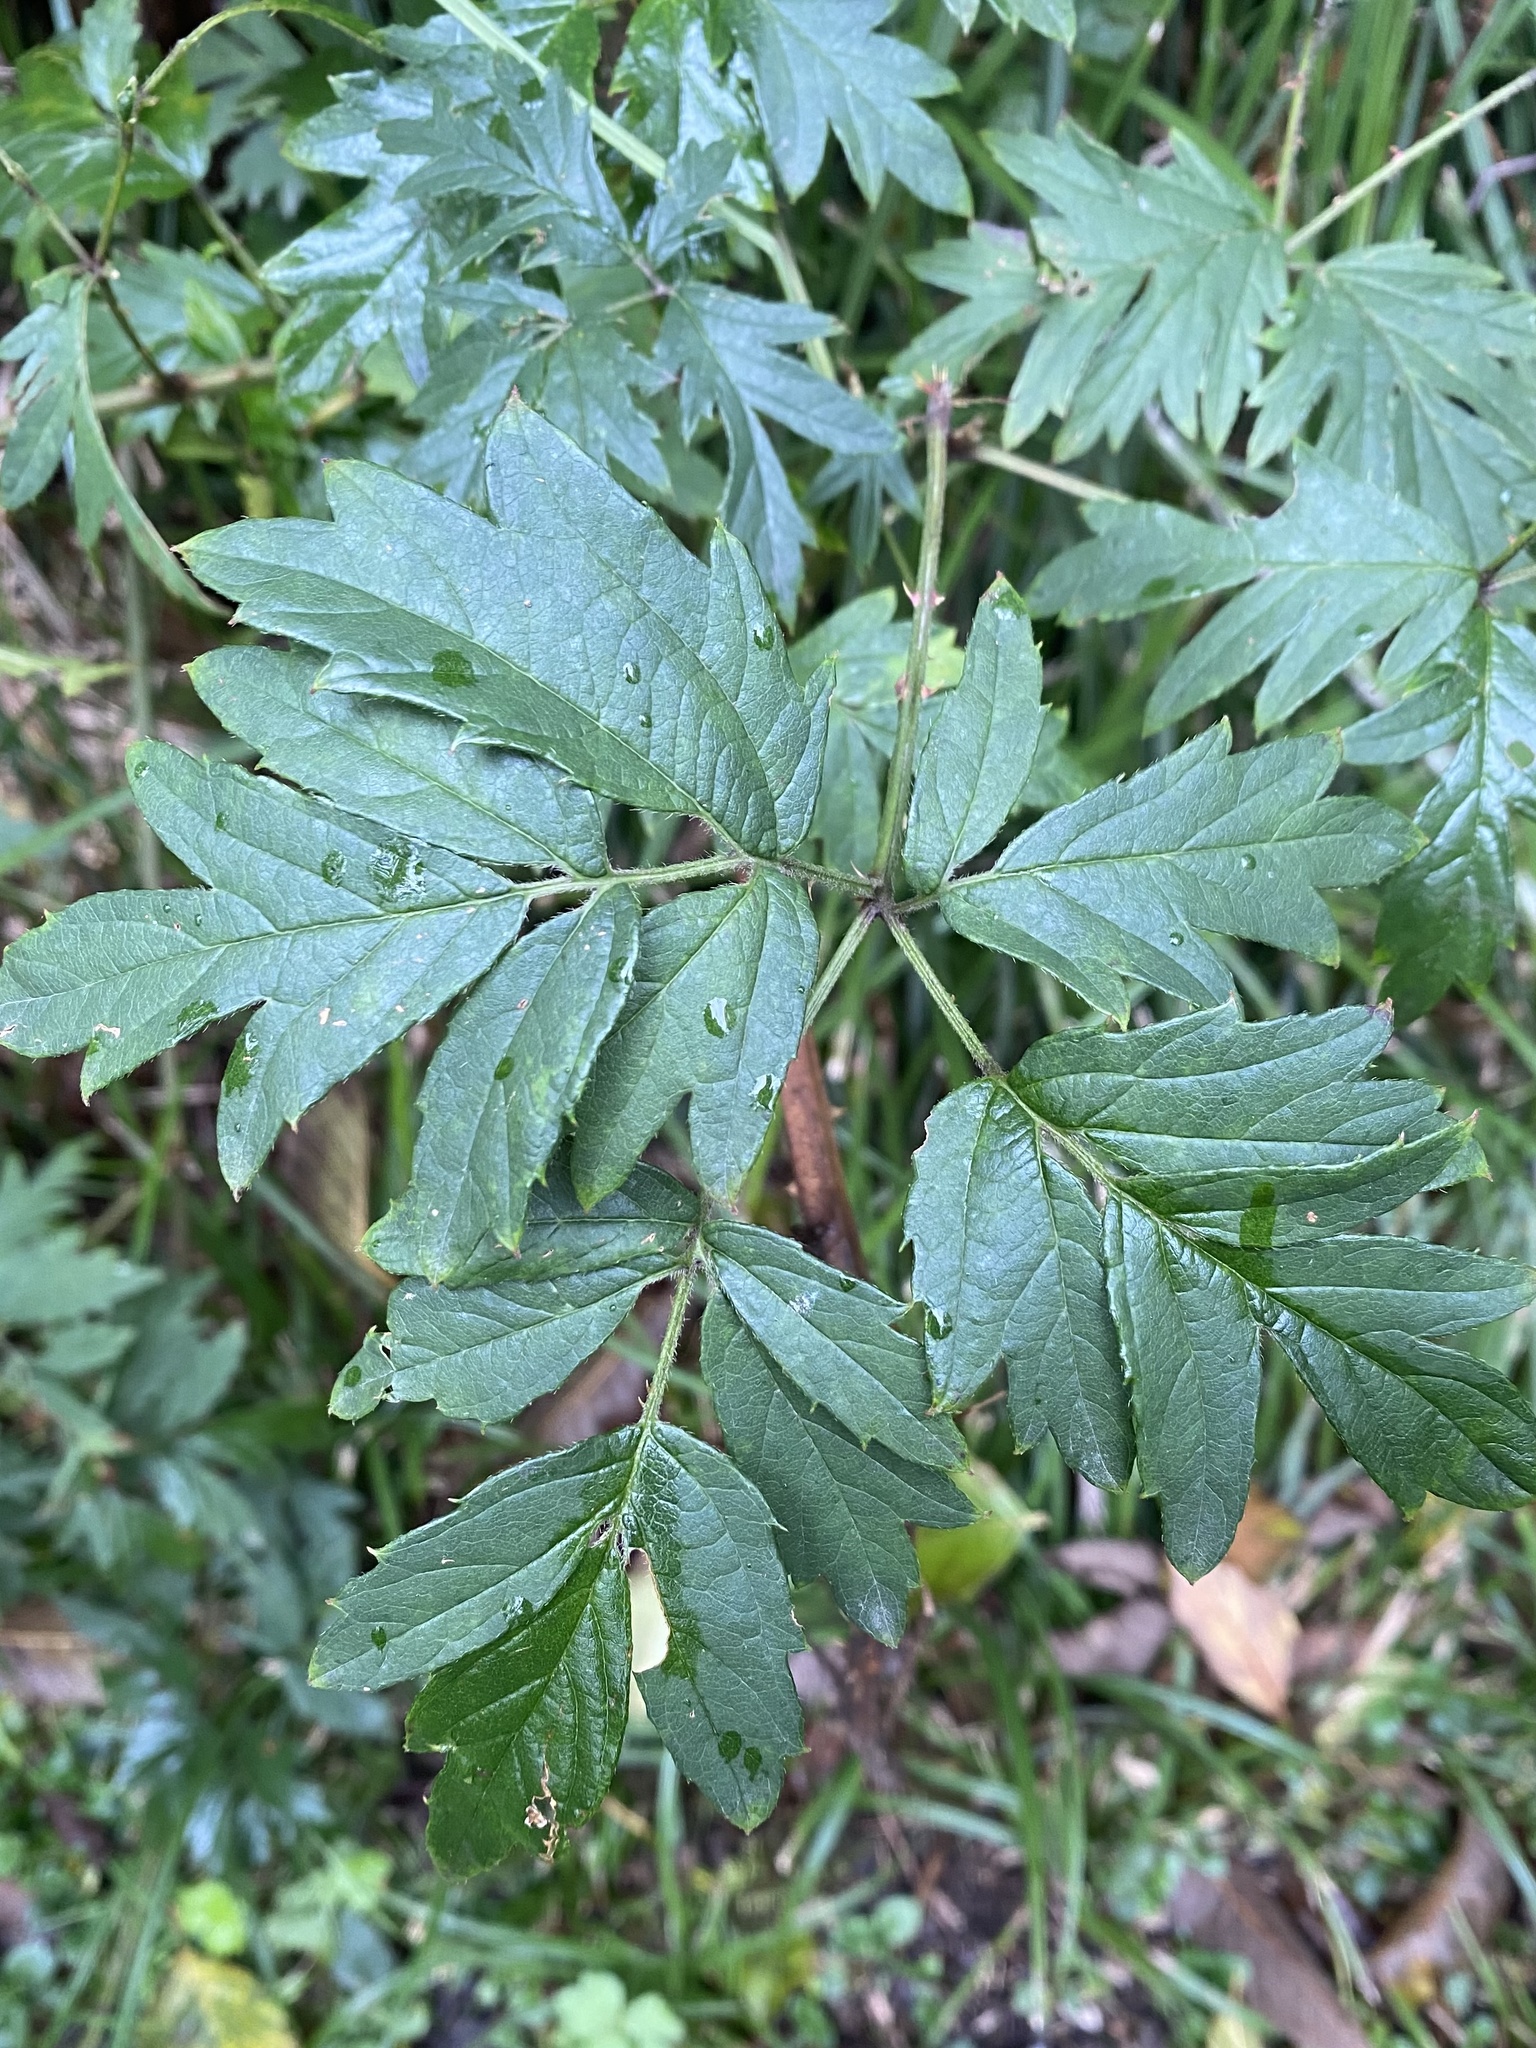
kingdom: Plantae
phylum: Tracheophyta
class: Magnoliopsida
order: Rosales
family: Rosaceae
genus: Rubus
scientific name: Rubus laciniatus
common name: Evergreen blackberry
